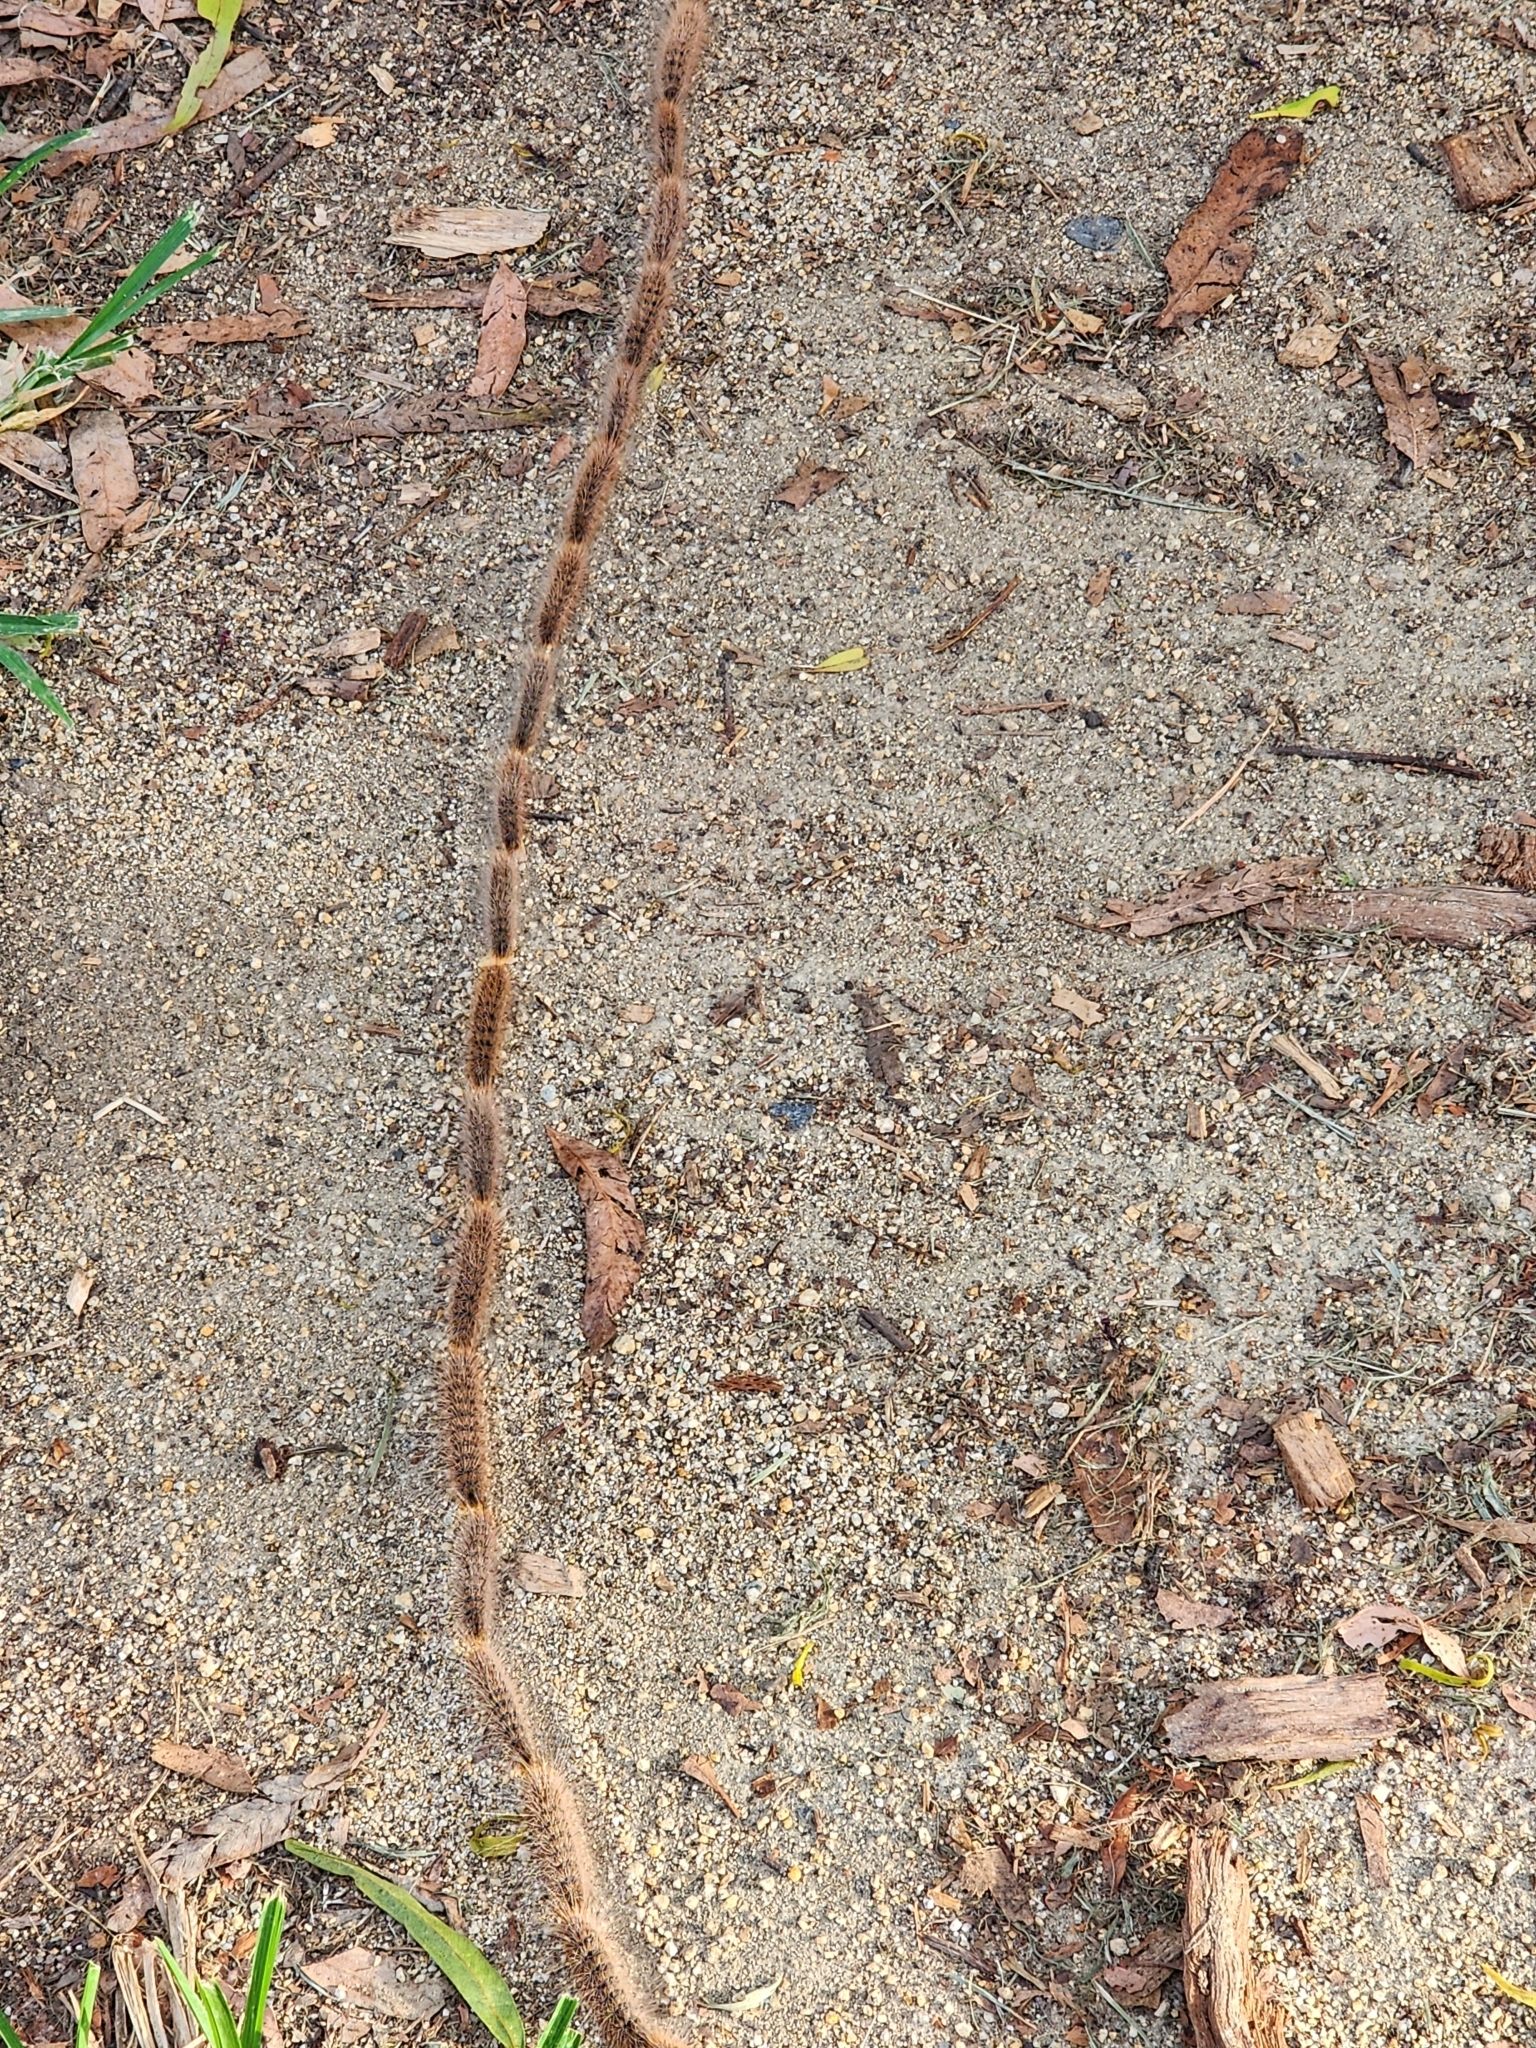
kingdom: Animalia
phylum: Arthropoda
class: Insecta
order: Lepidoptera
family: Notodontidae
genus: Ochrogaster
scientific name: Ochrogaster lunifer
